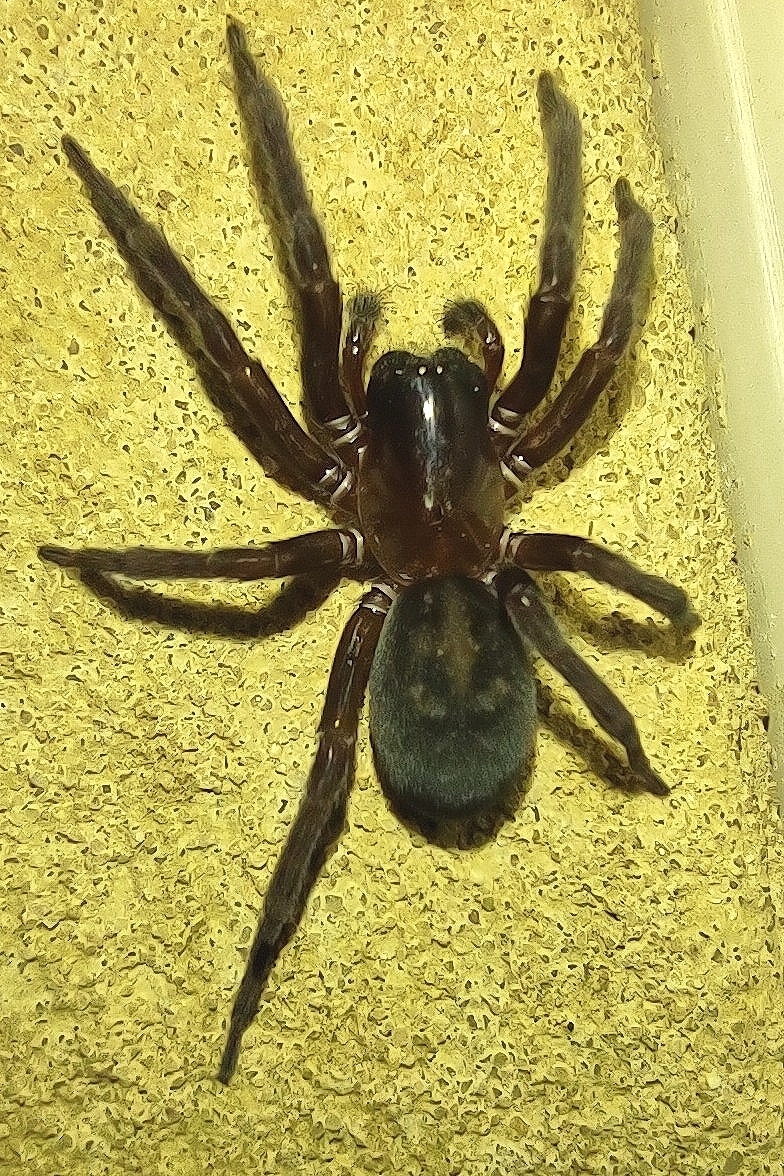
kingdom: Animalia
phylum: Arthropoda
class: Arachnida
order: Araneae
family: Amaurobiidae
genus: Amaurobius
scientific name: Amaurobius ferox
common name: Black laceweaver
